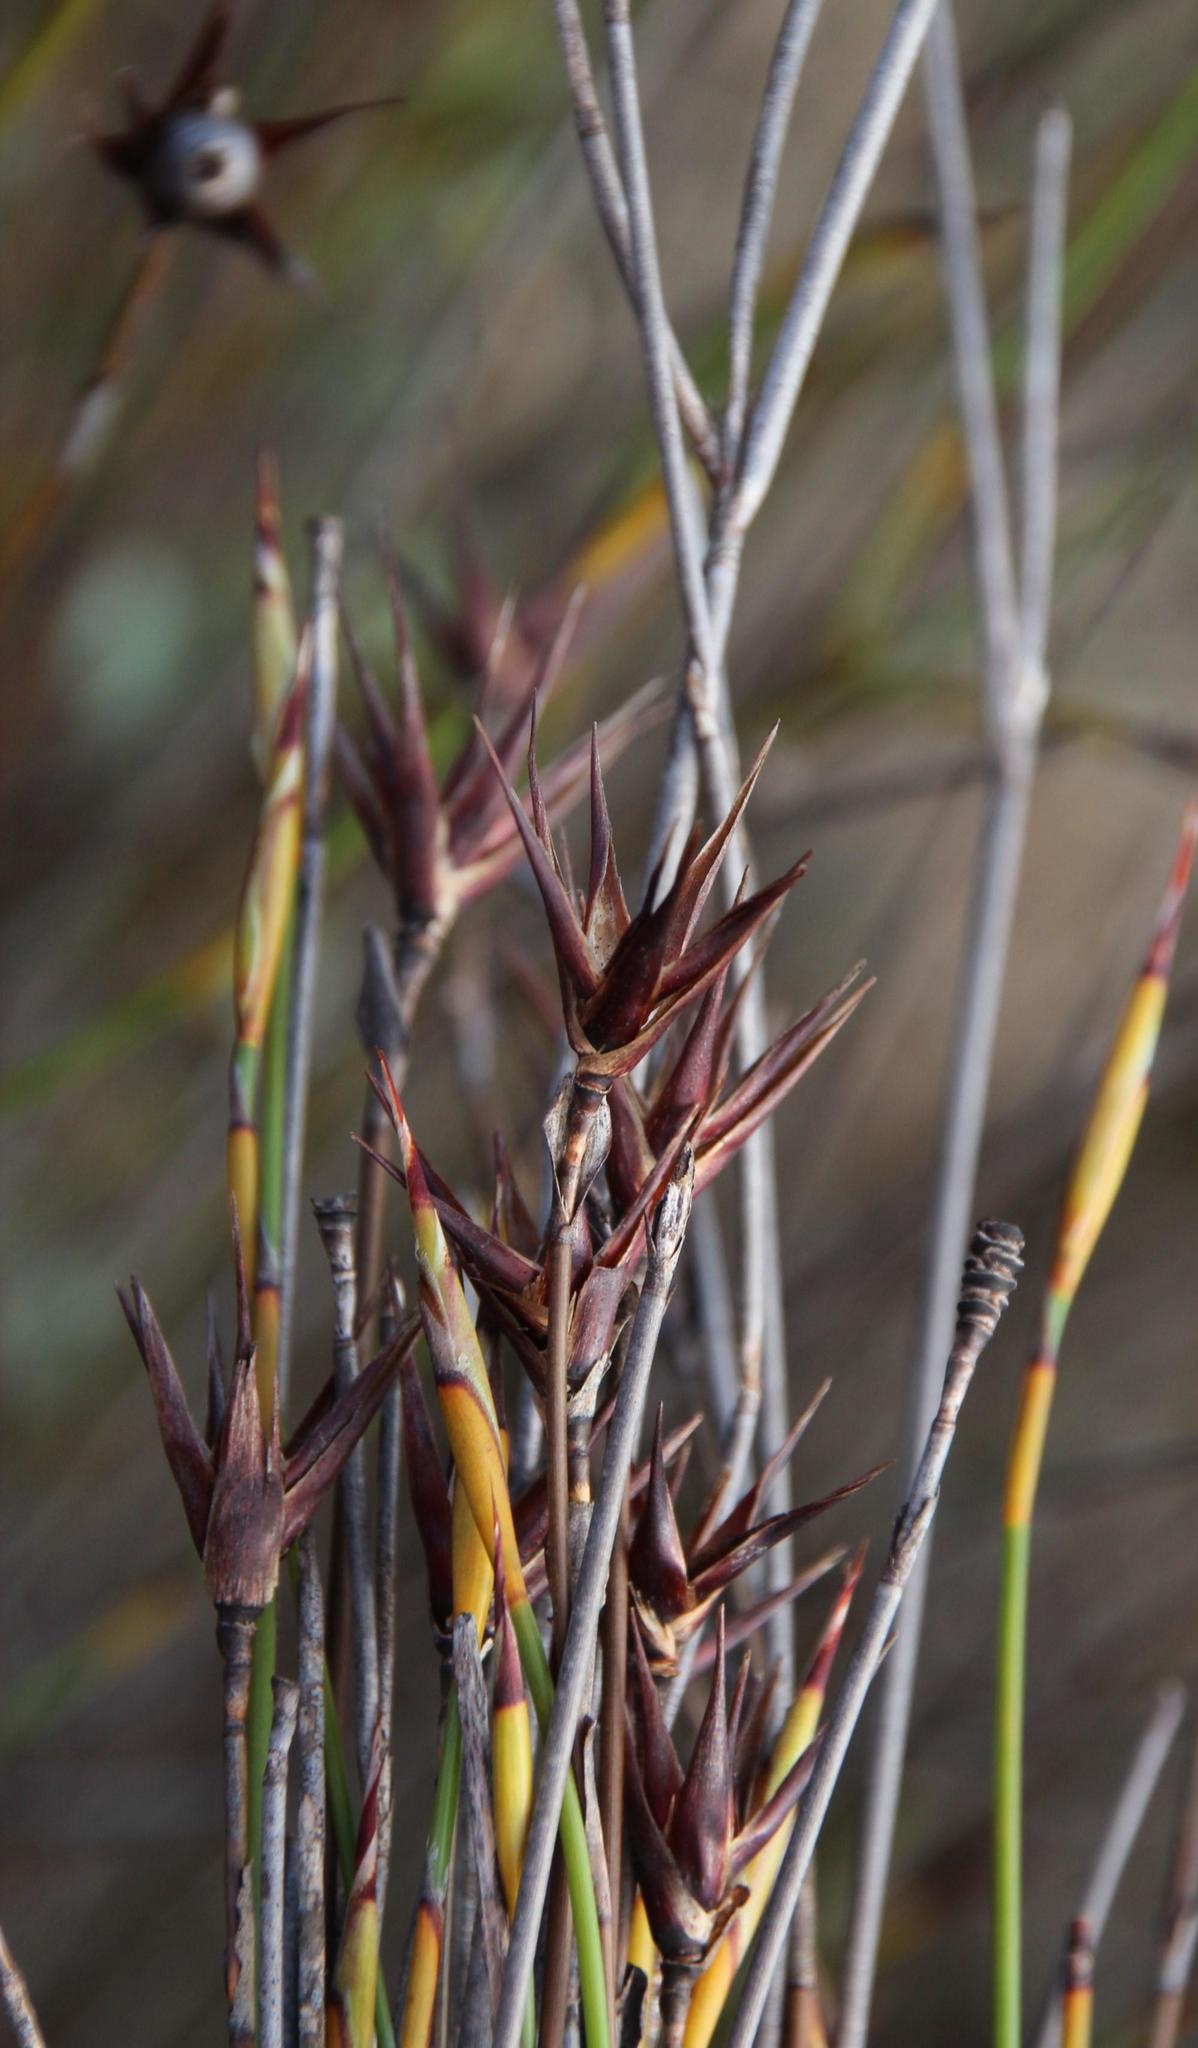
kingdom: Plantae
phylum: Tracheophyta
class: Liliopsida
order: Poales
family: Restionaceae
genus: Willdenowia
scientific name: Willdenowia incurvata
